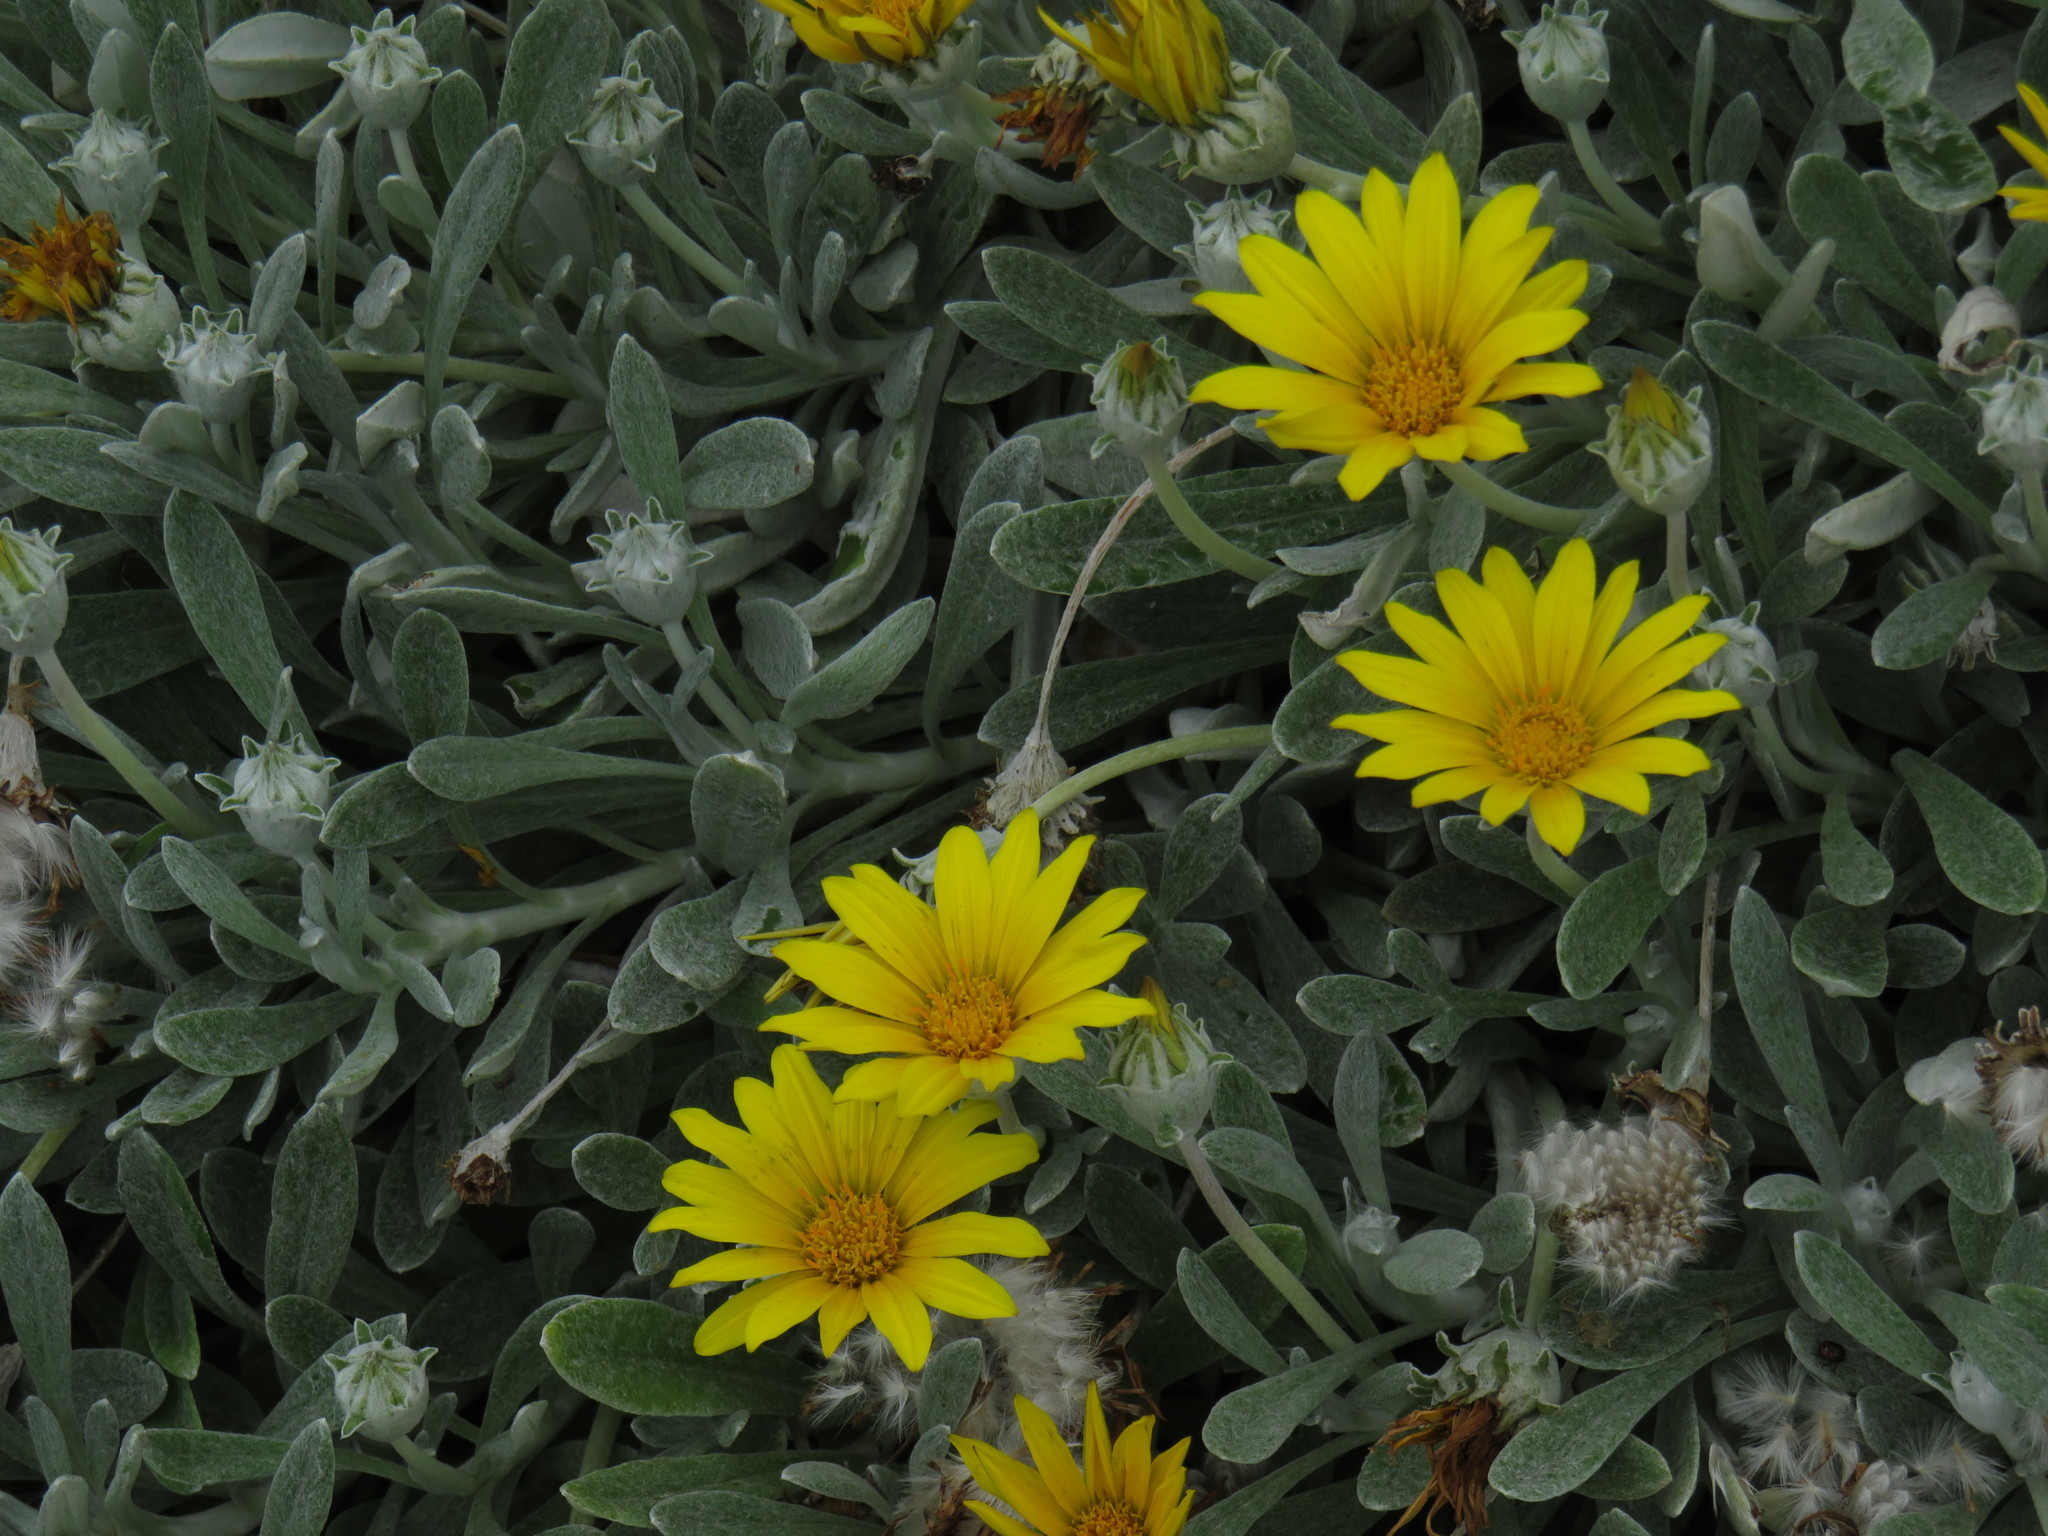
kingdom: Plantae
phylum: Tracheophyta
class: Magnoliopsida
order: Asterales
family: Asteraceae
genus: Gazania
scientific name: Gazania rigens
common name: Treasureflower
